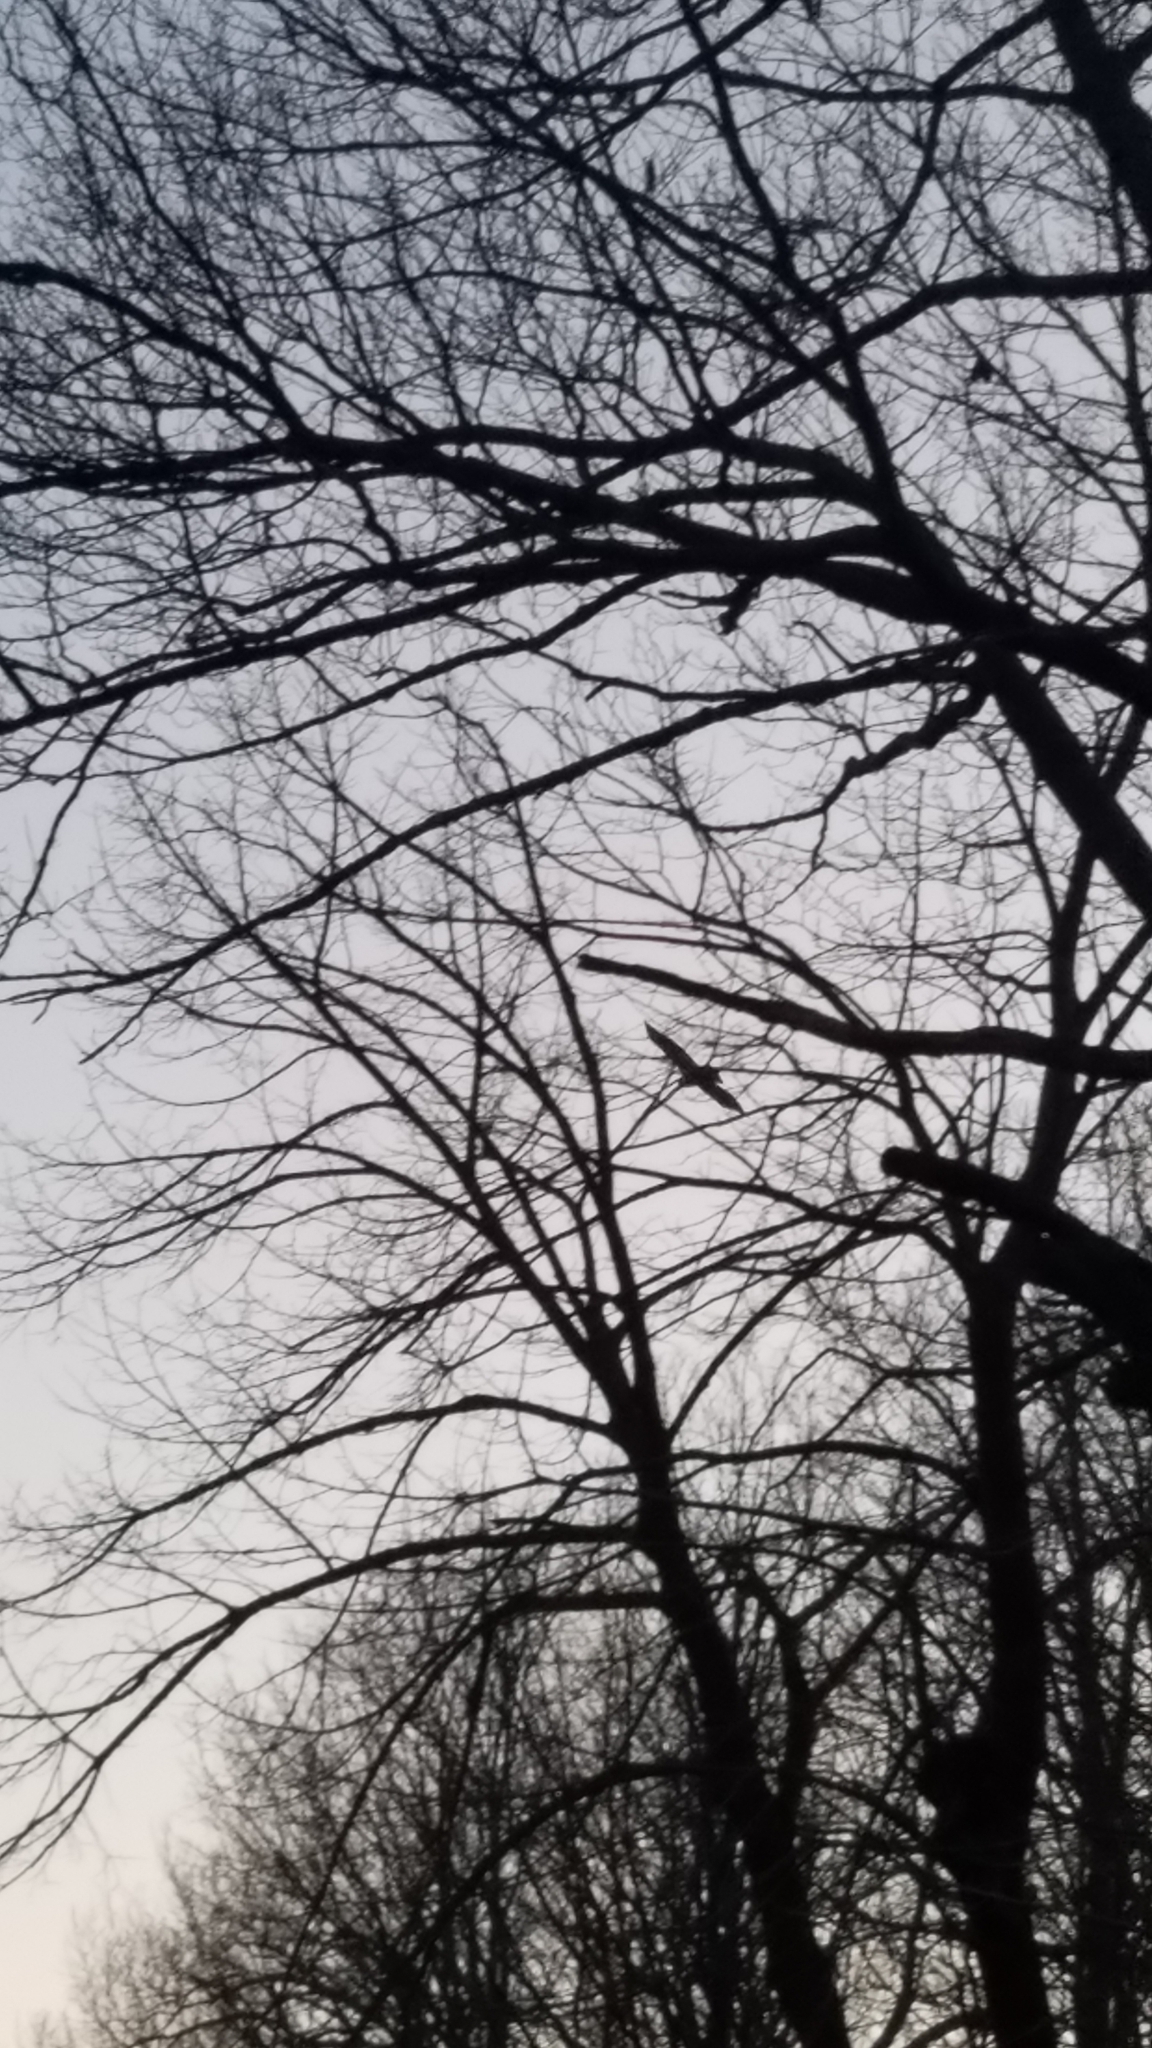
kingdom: Animalia
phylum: Chordata
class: Aves
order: Accipitriformes
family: Accipitridae
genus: Buteo
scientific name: Buteo jamaicensis
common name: Red-tailed hawk
